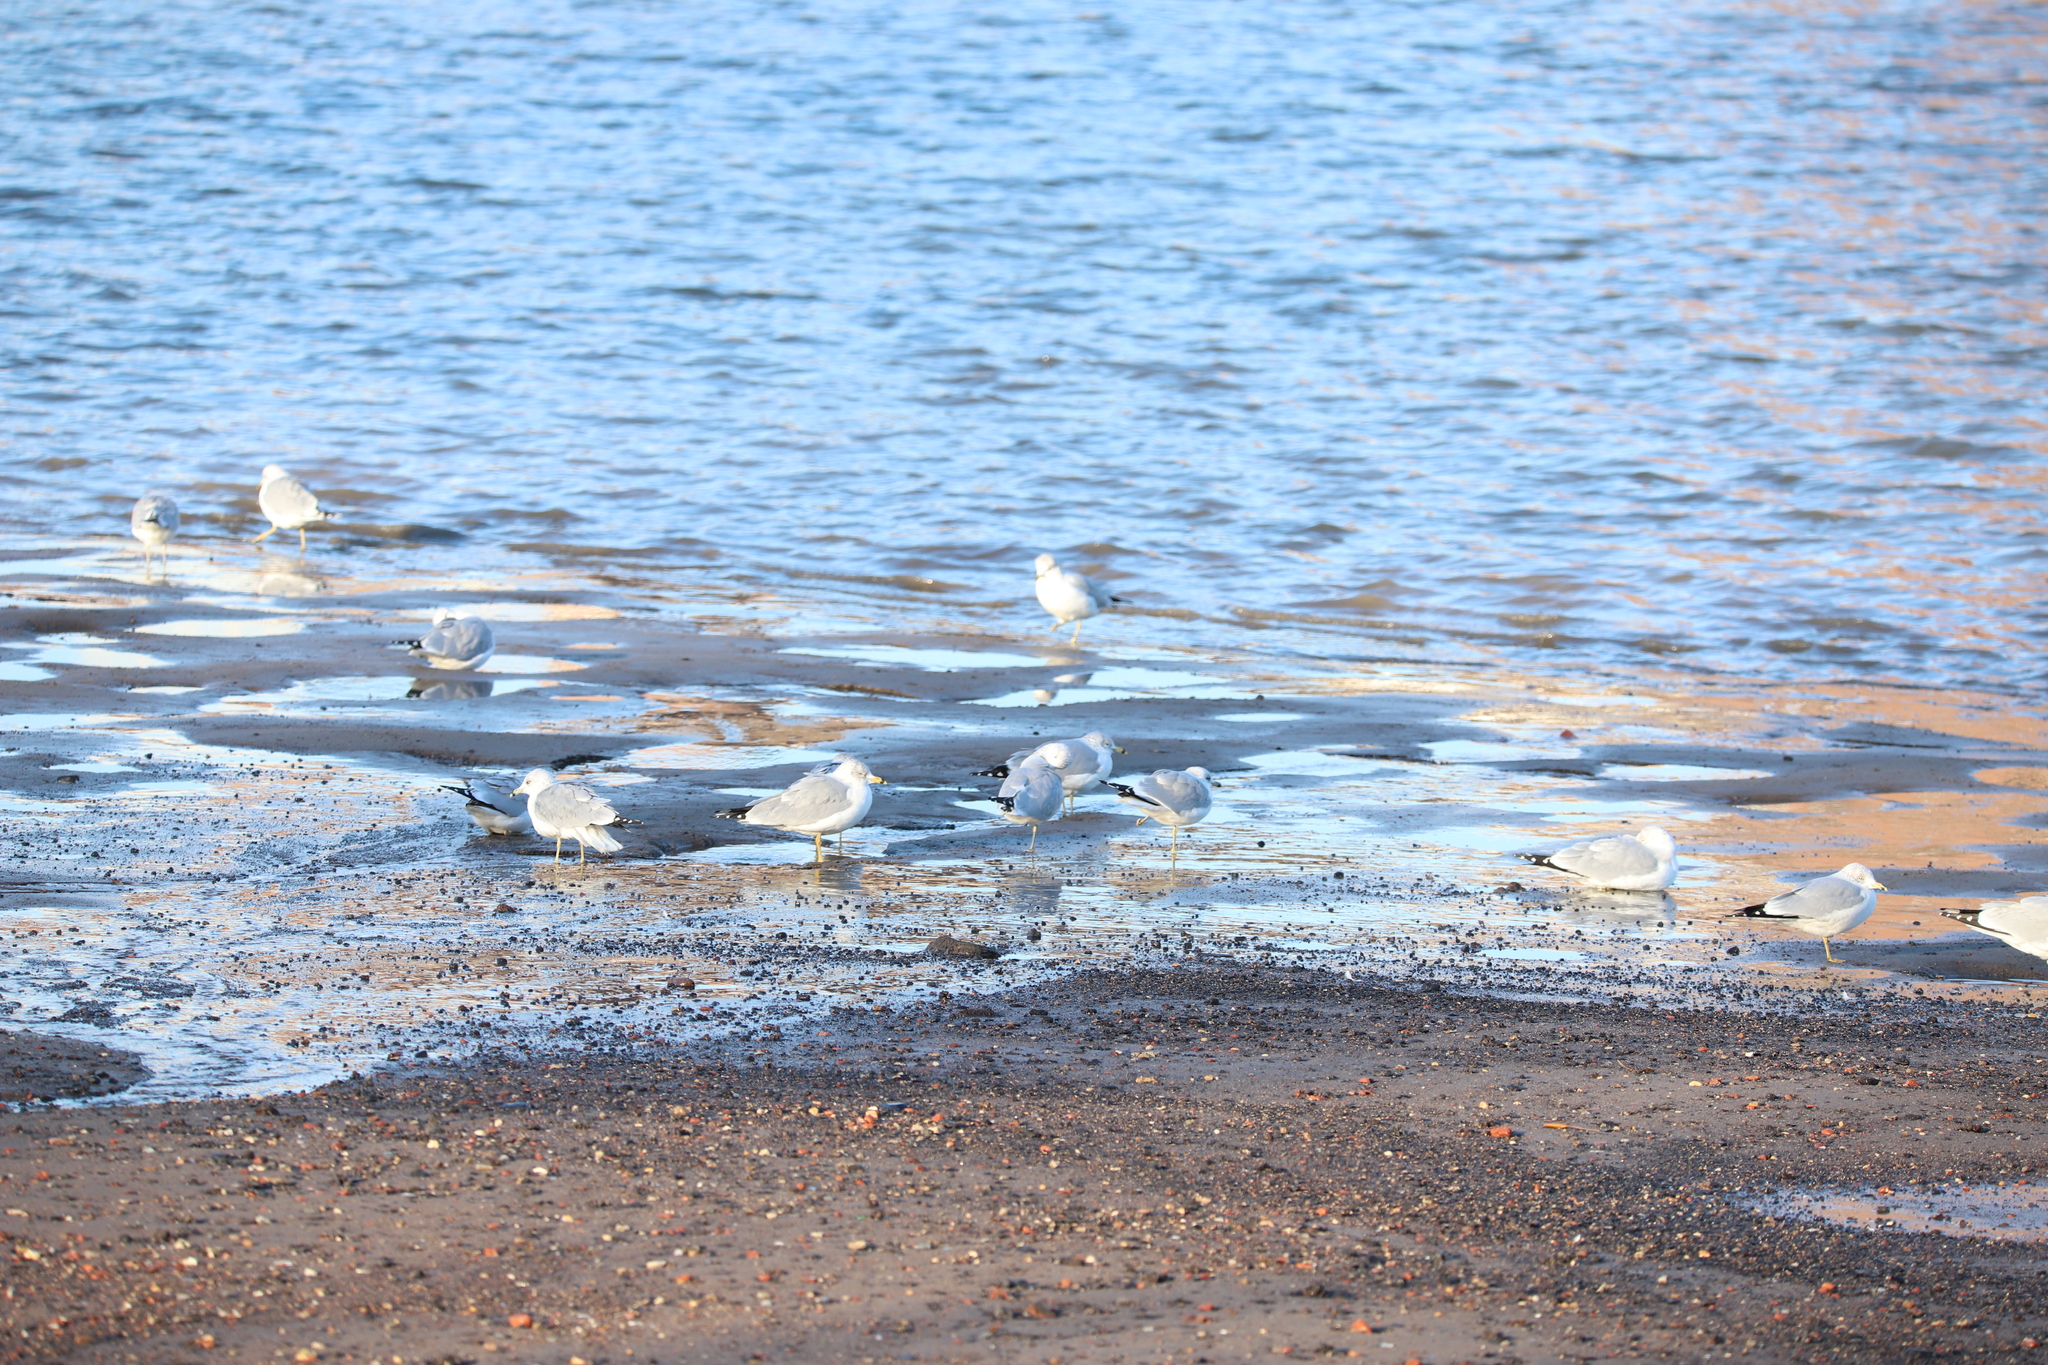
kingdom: Animalia
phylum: Chordata
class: Aves
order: Charadriiformes
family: Laridae
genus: Larus
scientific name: Larus delawarensis
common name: Ring-billed gull
